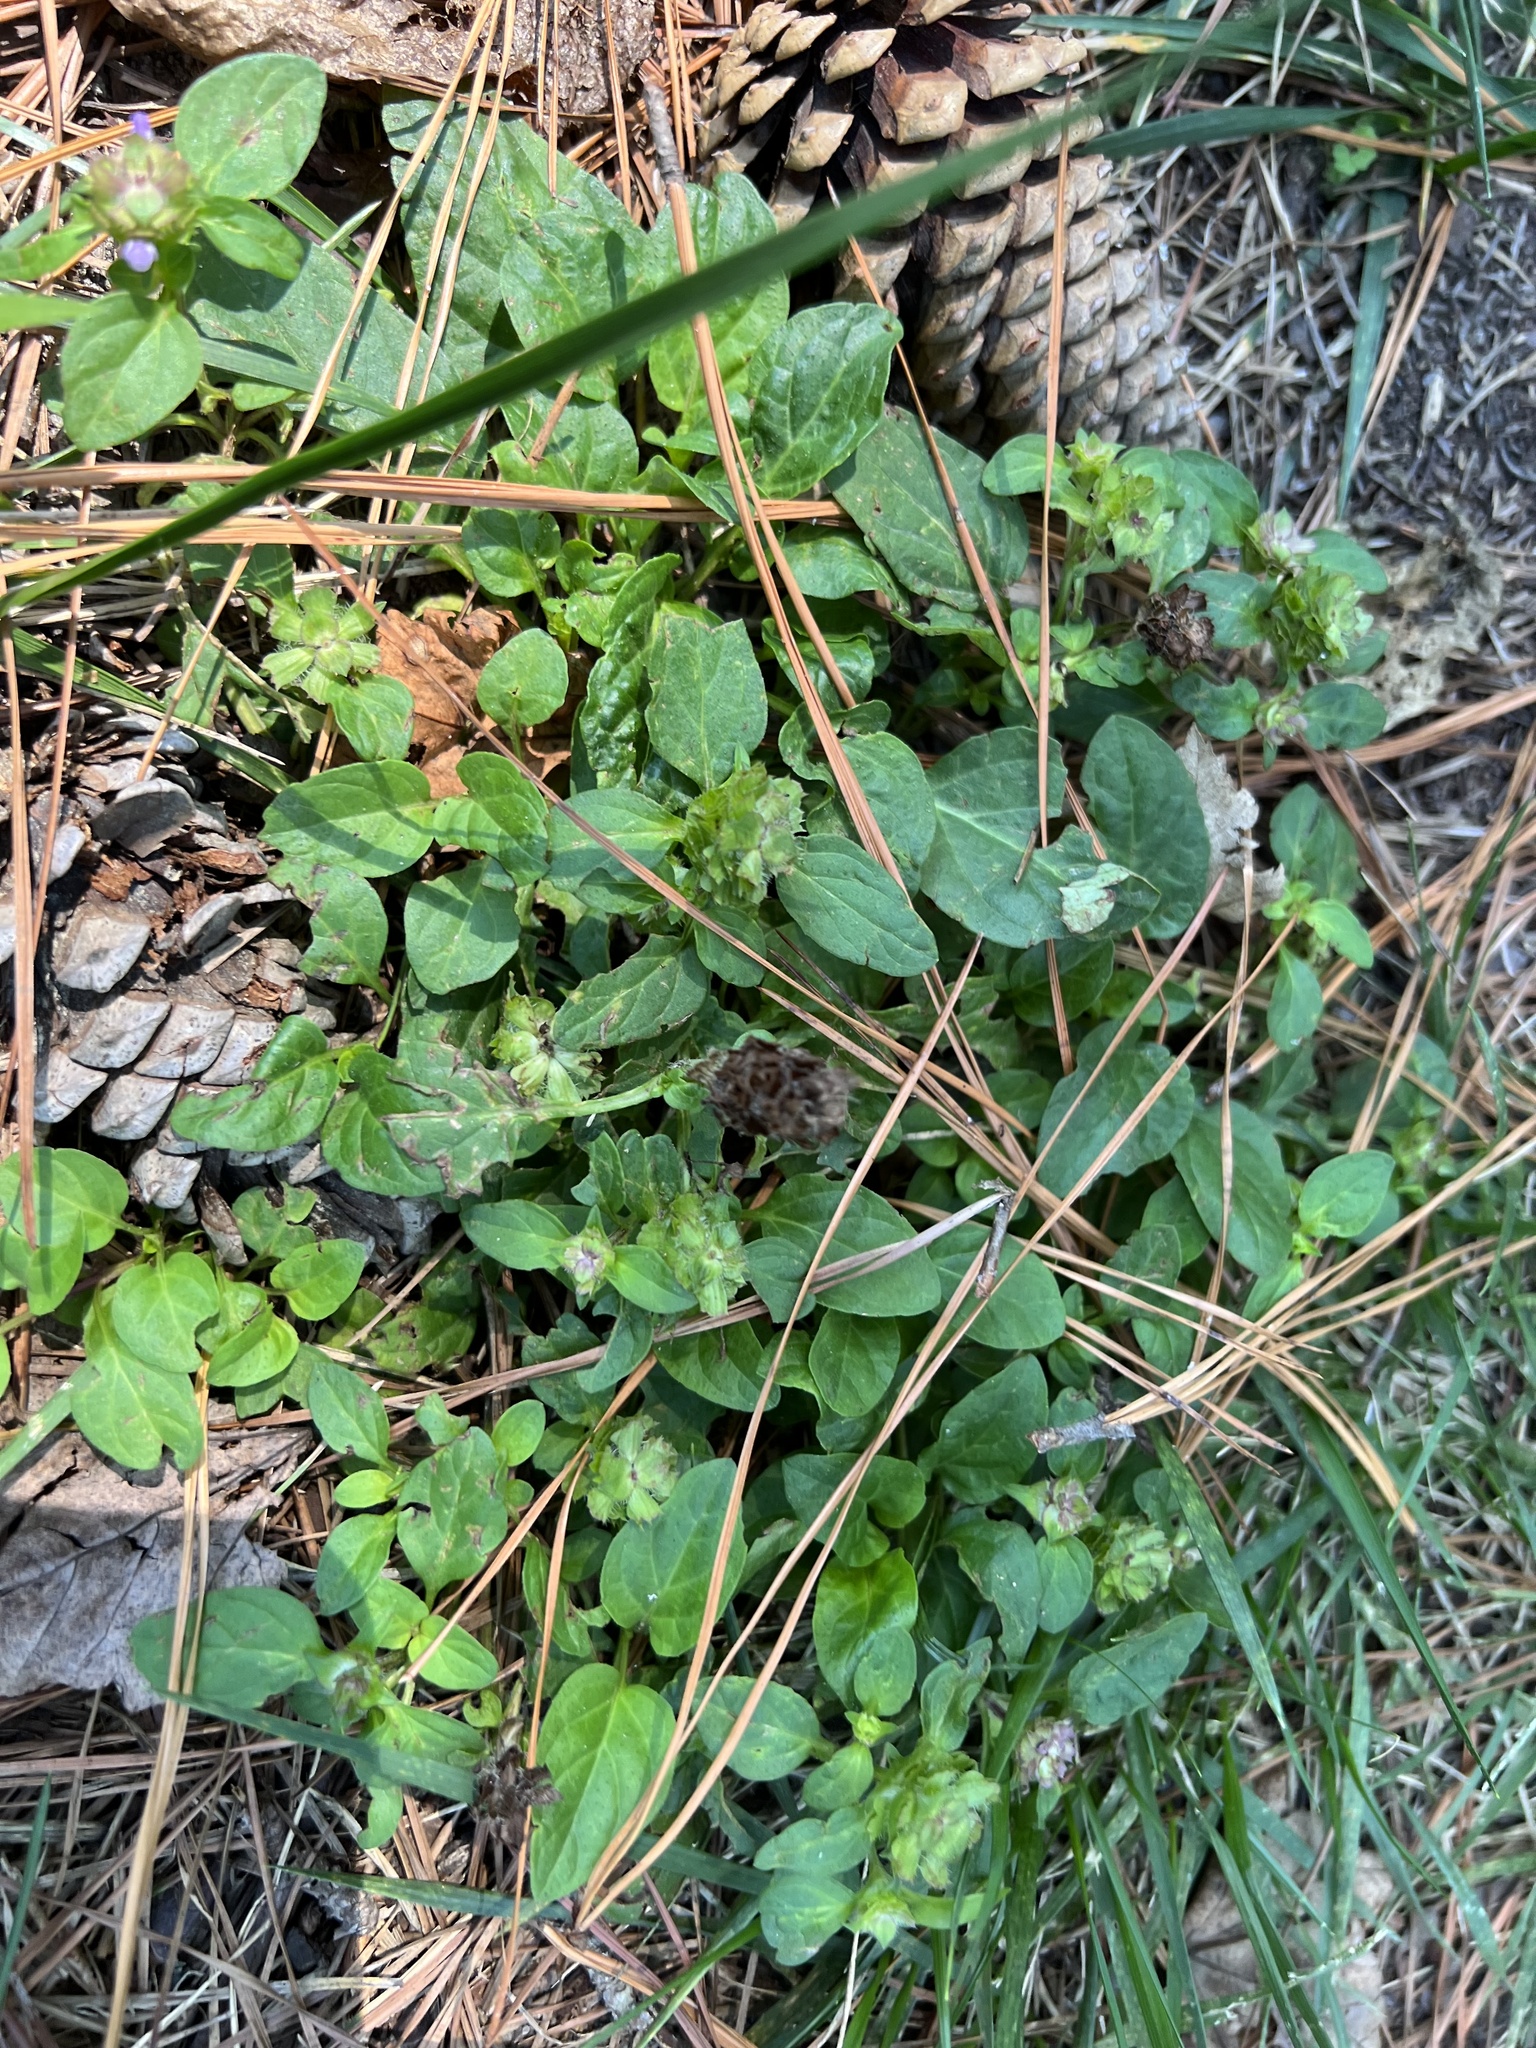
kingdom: Plantae
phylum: Tracheophyta
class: Magnoliopsida
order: Lamiales
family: Lamiaceae
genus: Prunella
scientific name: Prunella vulgaris
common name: Heal-all
